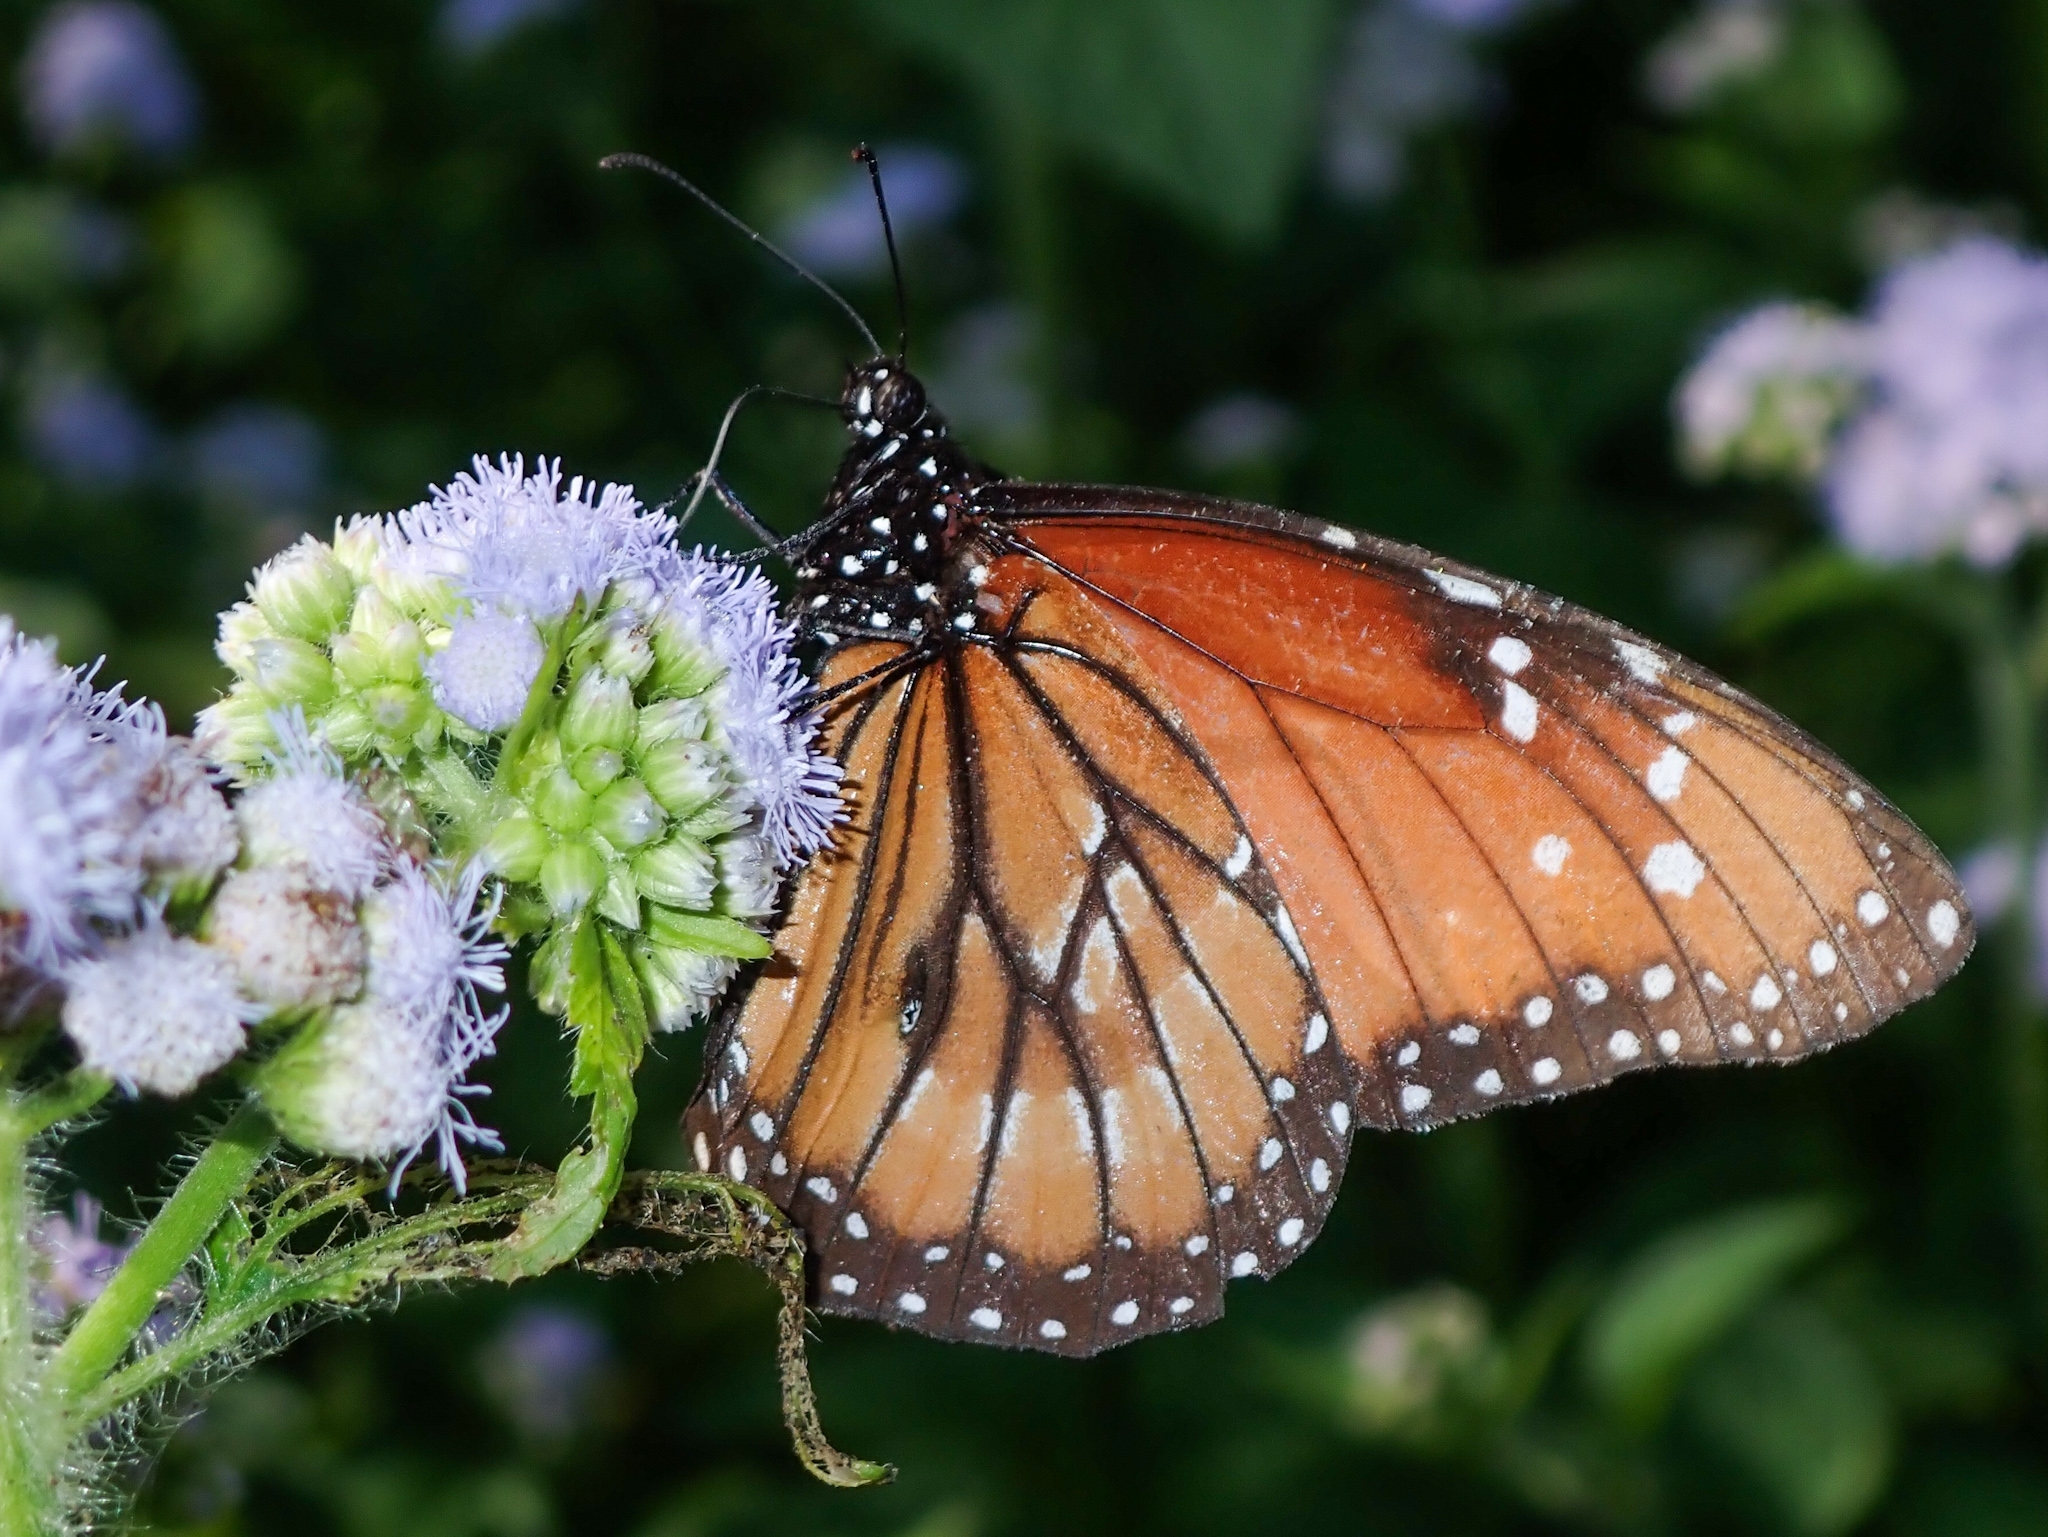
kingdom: Animalia
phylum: Arthropoda
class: Insecta
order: Lepidoptera
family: Nymphalidae
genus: Danaus
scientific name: Danaus eresimus
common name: Soldier
